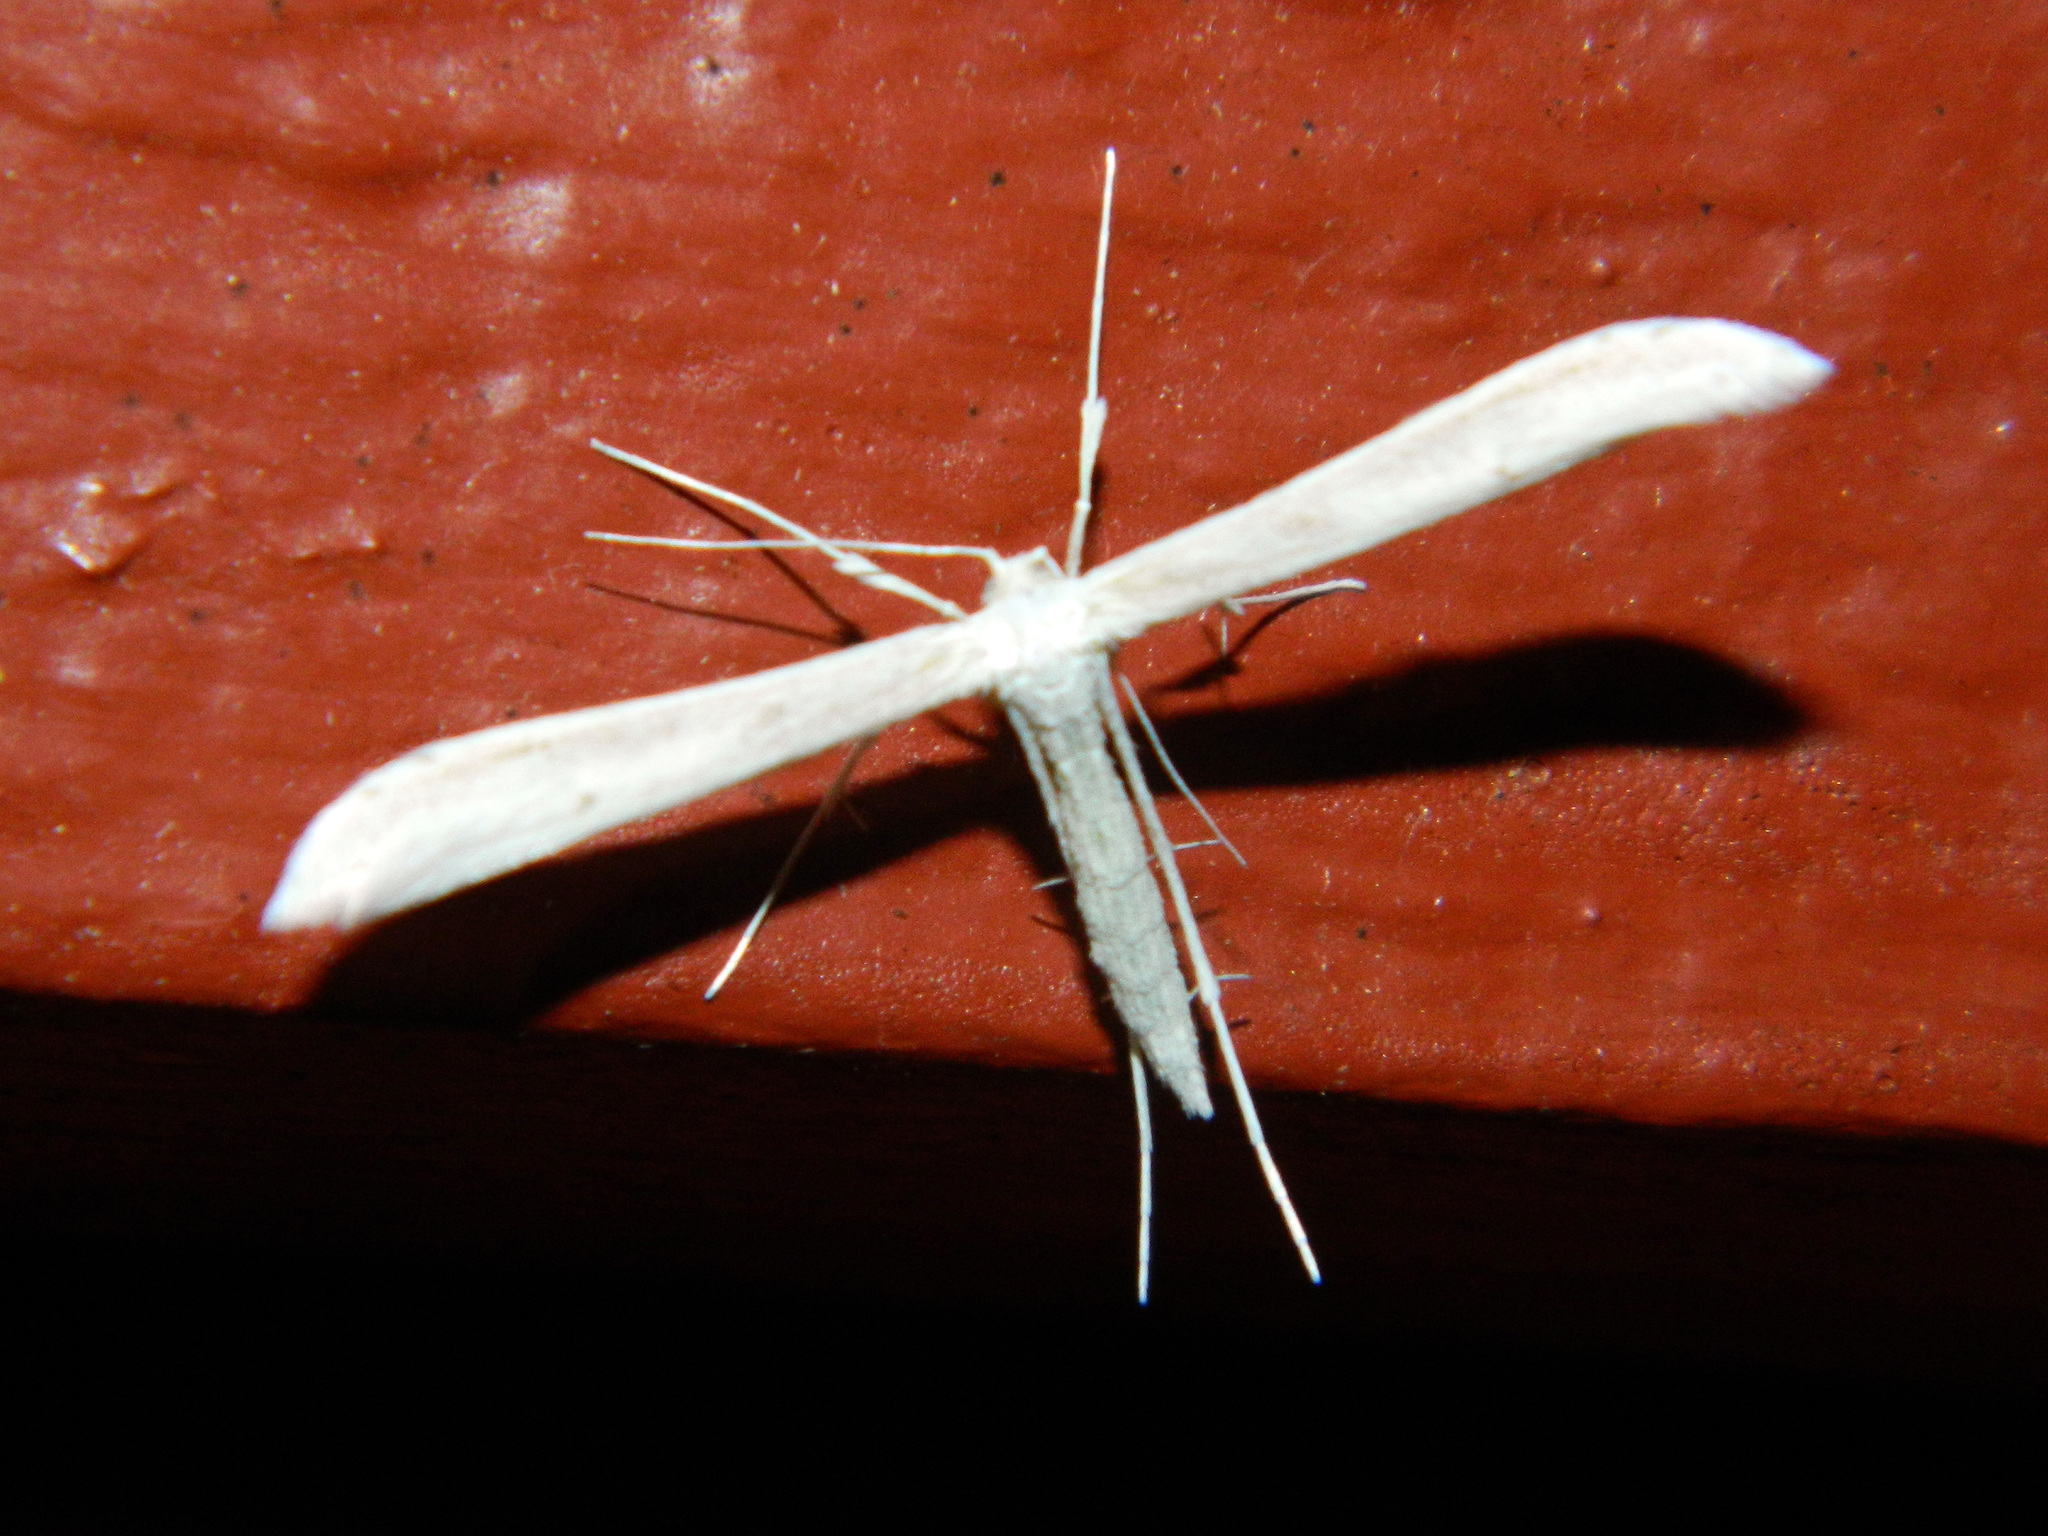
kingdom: Animalia
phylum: Arthropoda
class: Insecta
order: Lepidoptera
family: Pterophoridae
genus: Hellinsia
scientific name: Hellinsia homodactylus
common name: Plain plume moth
